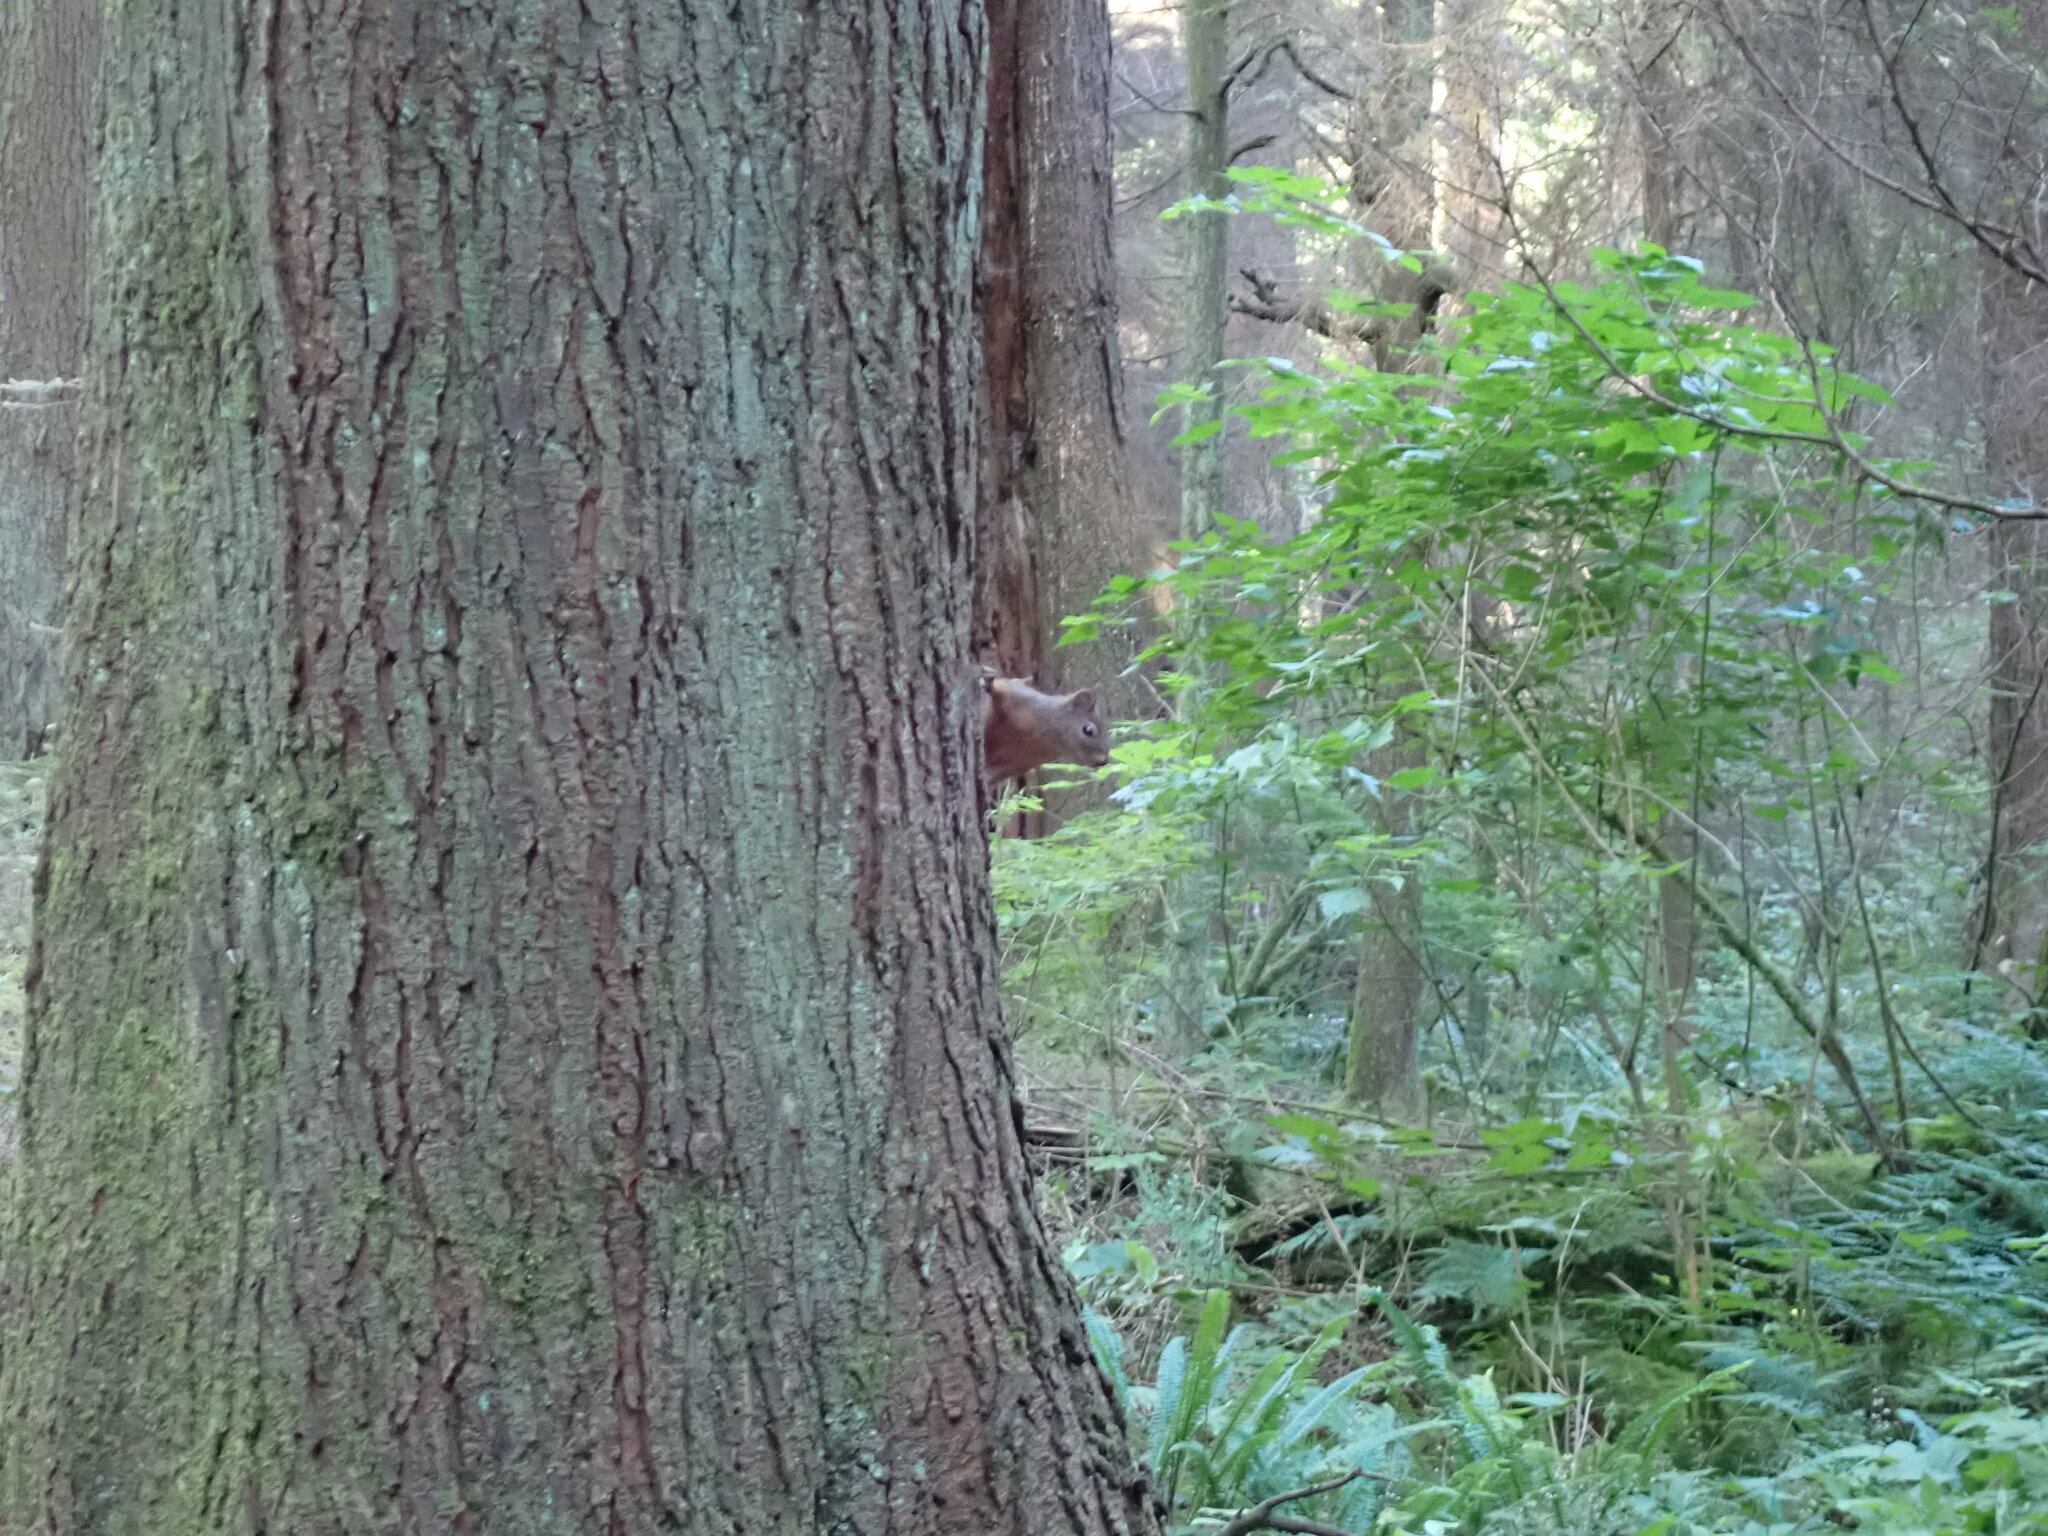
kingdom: Animalia
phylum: Chordata
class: Mammalia
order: Rodentia
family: Sciuridae
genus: Tamiasciurus
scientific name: Tamiasciurus douglasii
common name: Douglas's squirrel
